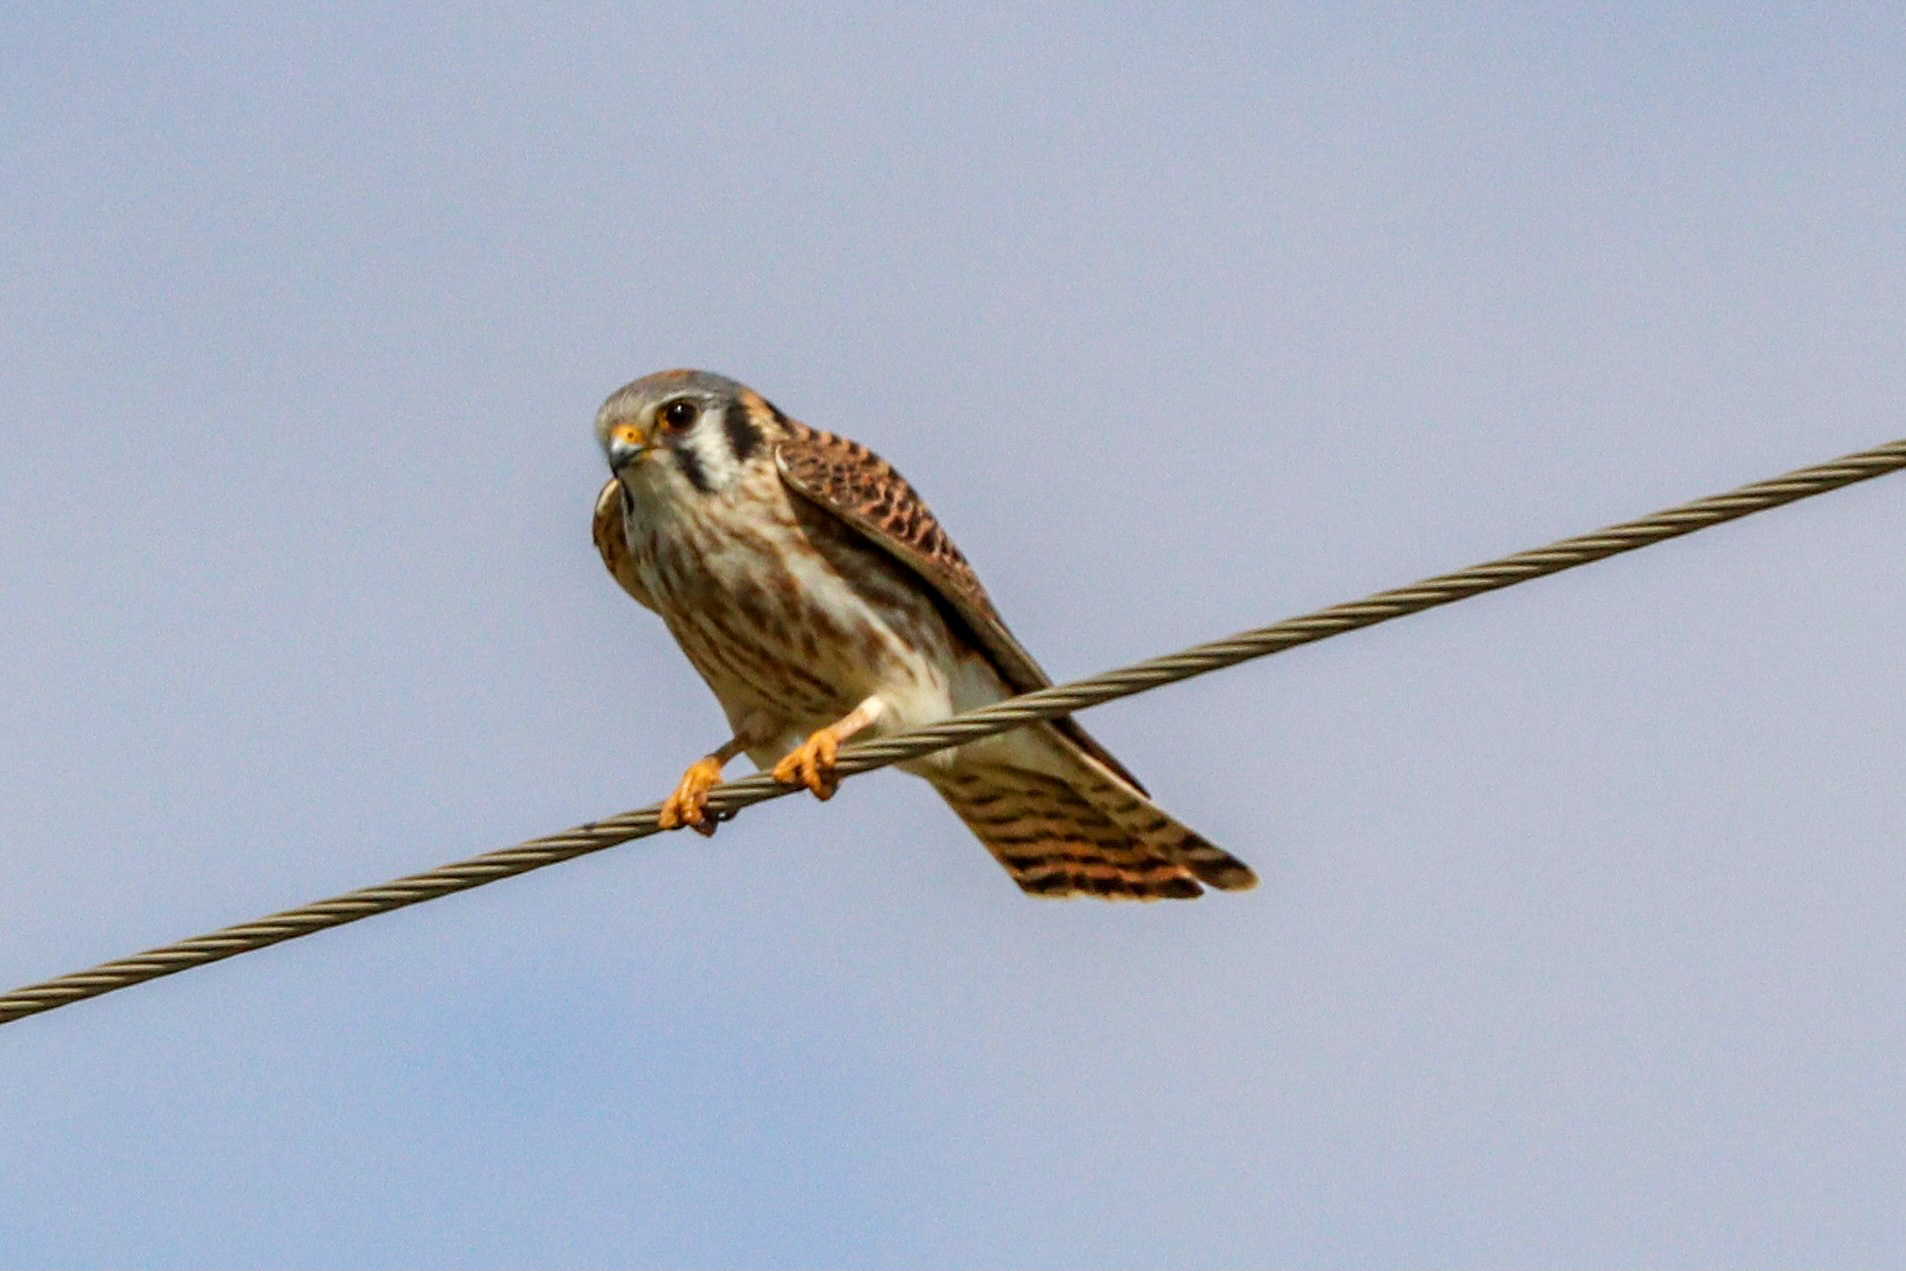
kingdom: Animalia
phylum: Chordata
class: Aves
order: Falconiformes
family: Falconidae
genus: Falco
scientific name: Falco sparverius
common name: American kestrel
